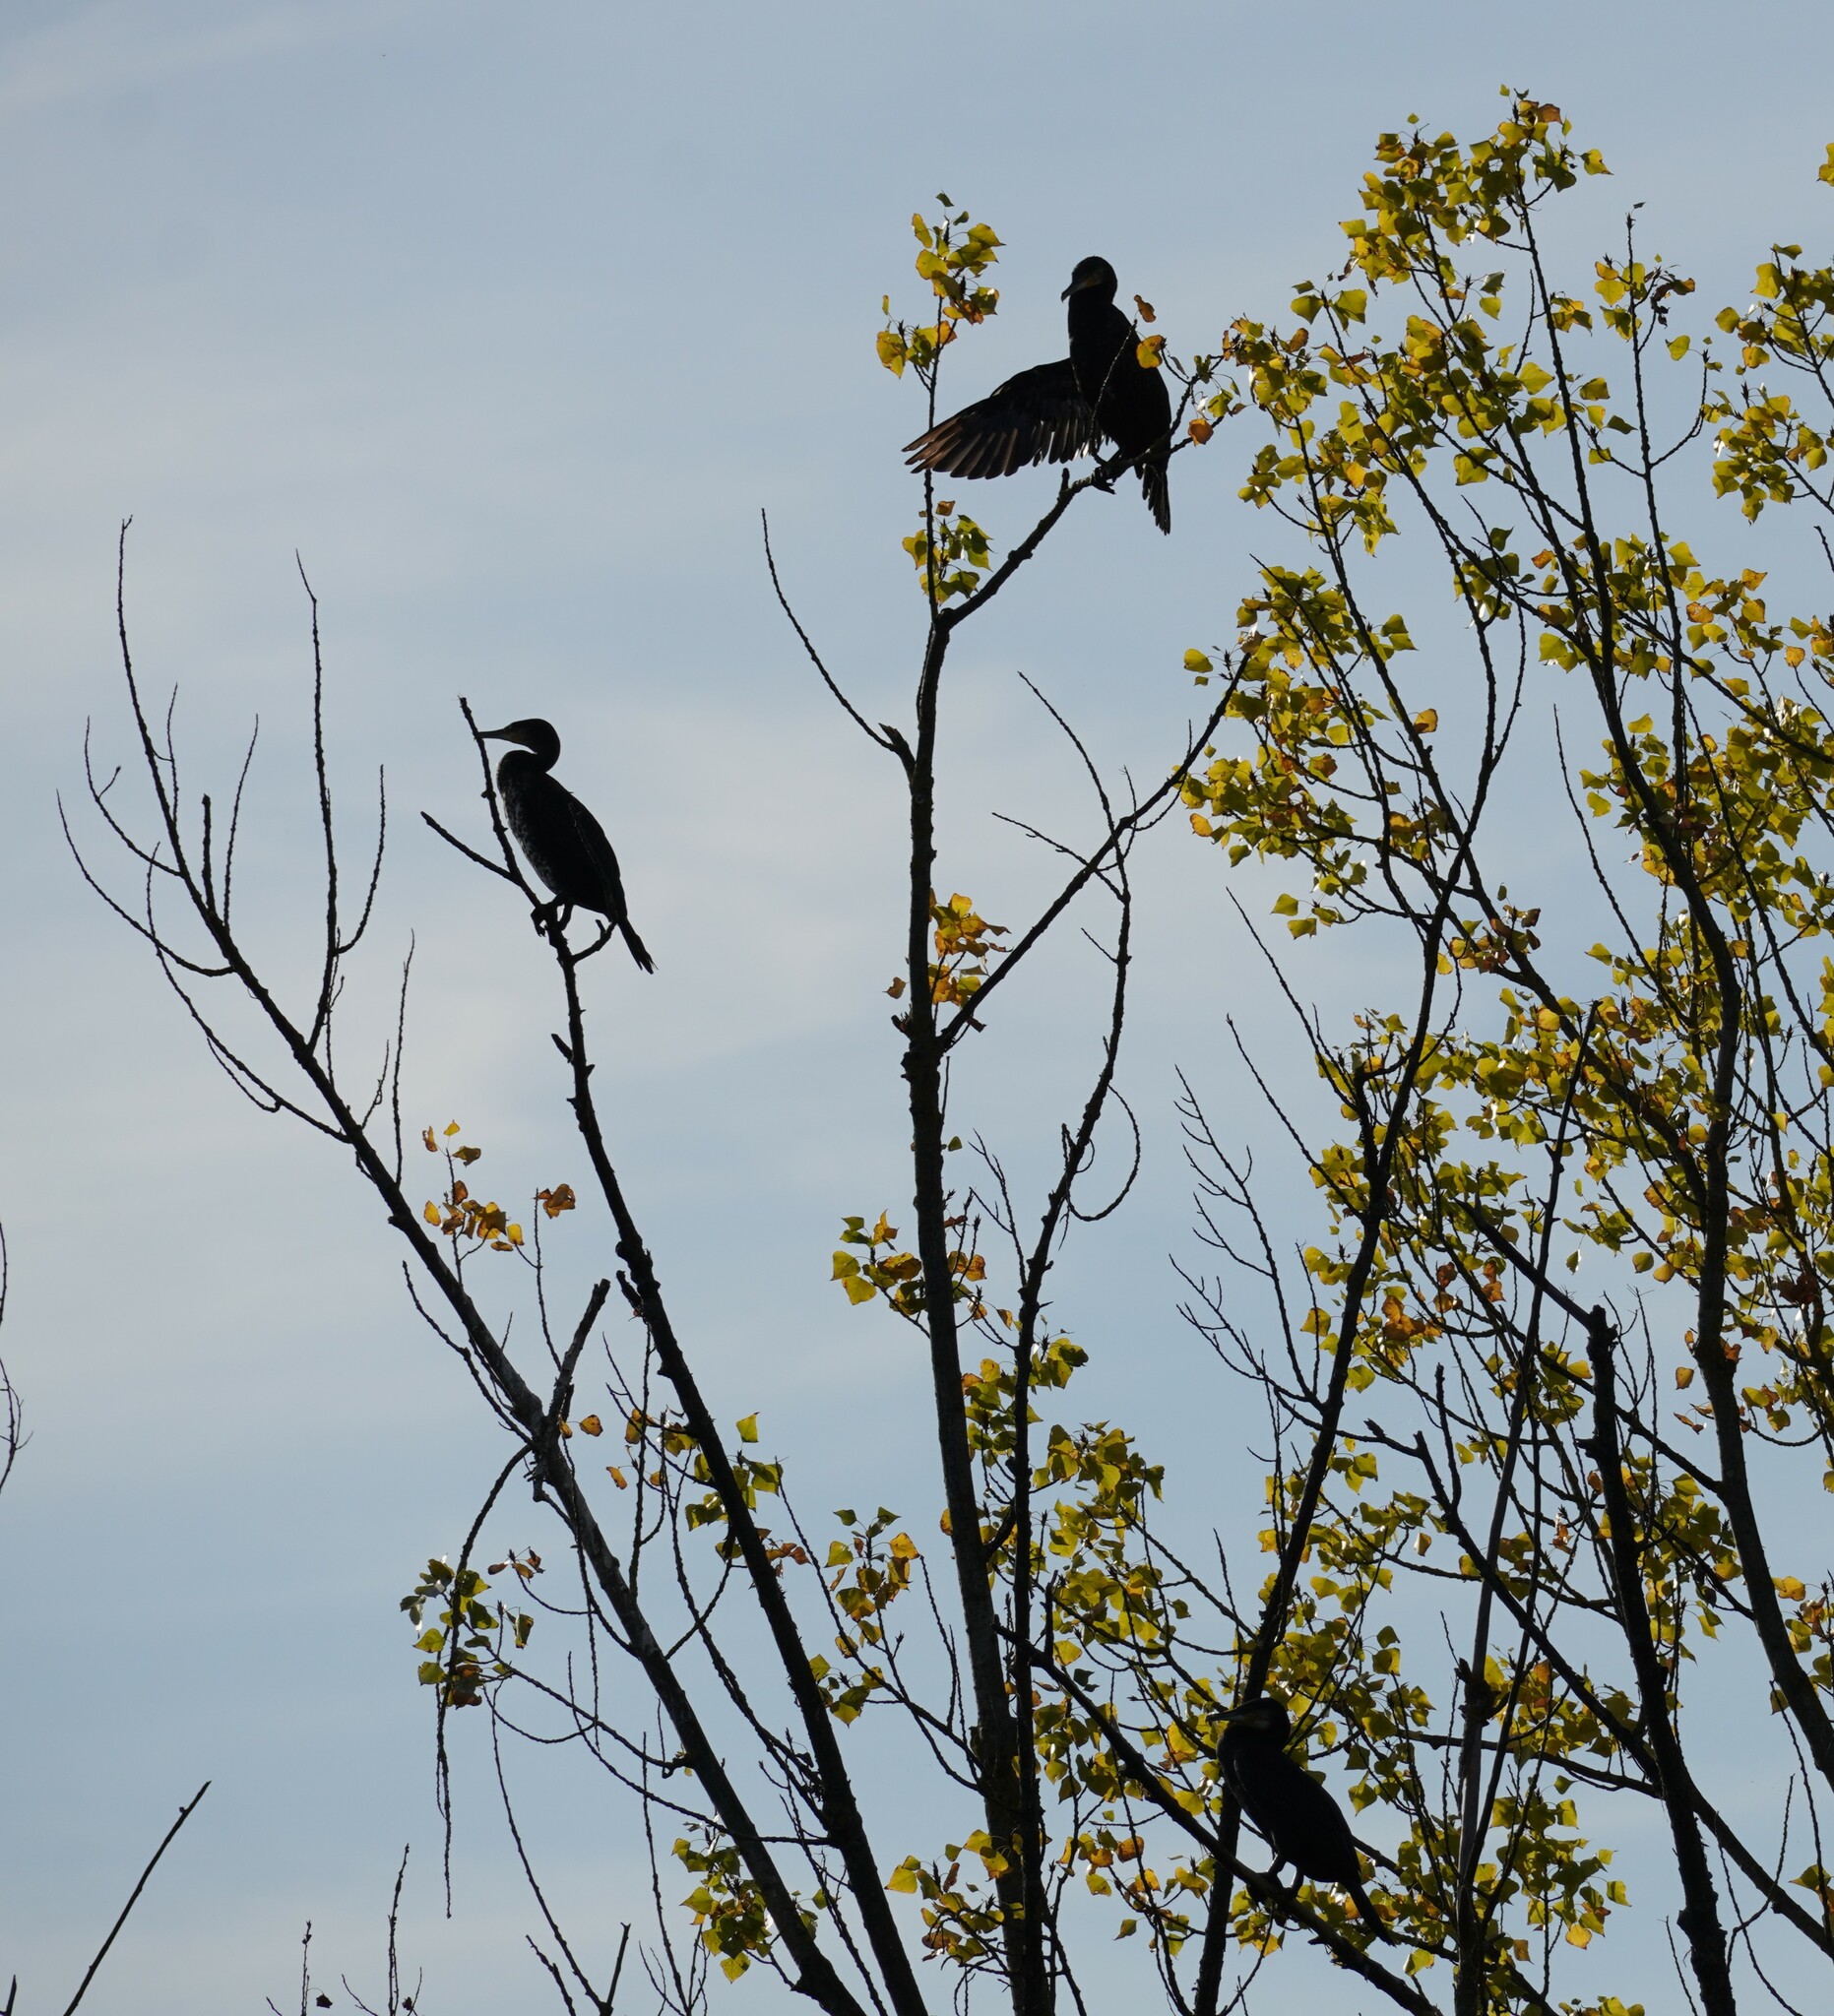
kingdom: Animalia
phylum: Chordata
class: Aves
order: Suliformes
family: Phalacrocoracidae
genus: Phalacrocorax
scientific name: Phalacrocorax carbo
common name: Great cormorant
